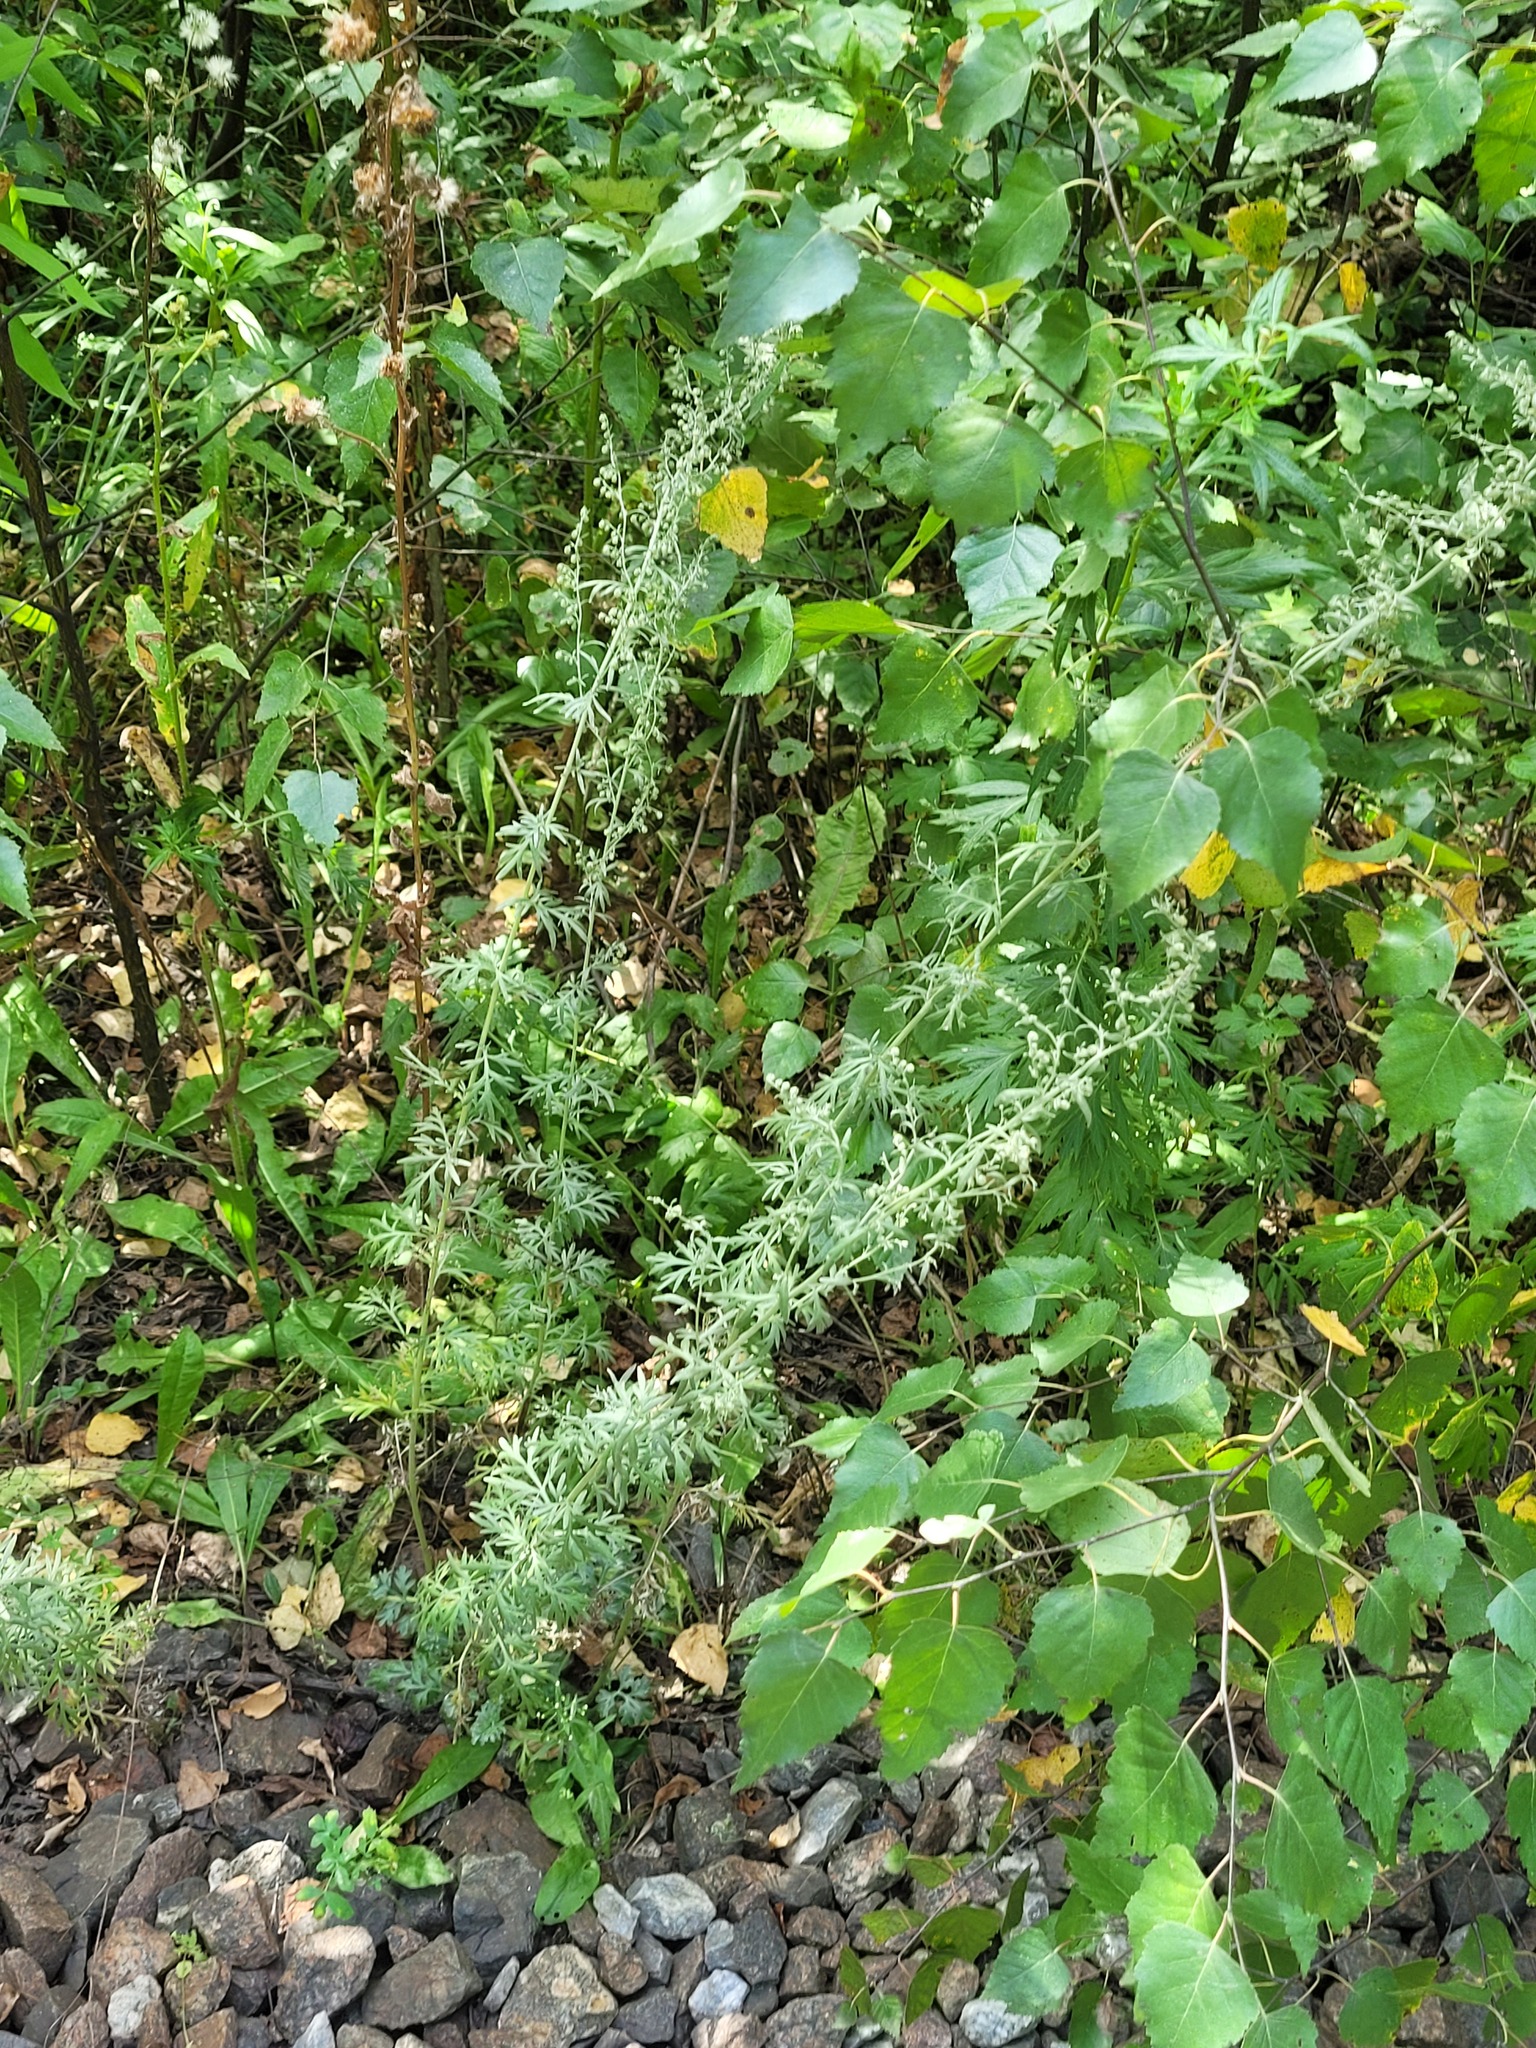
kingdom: Plantae
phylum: Tracheophyta
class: Magnoliopsida
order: Asterales
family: Asteraceae
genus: Artemisia
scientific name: Artemisia absinthium
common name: Wormwood
